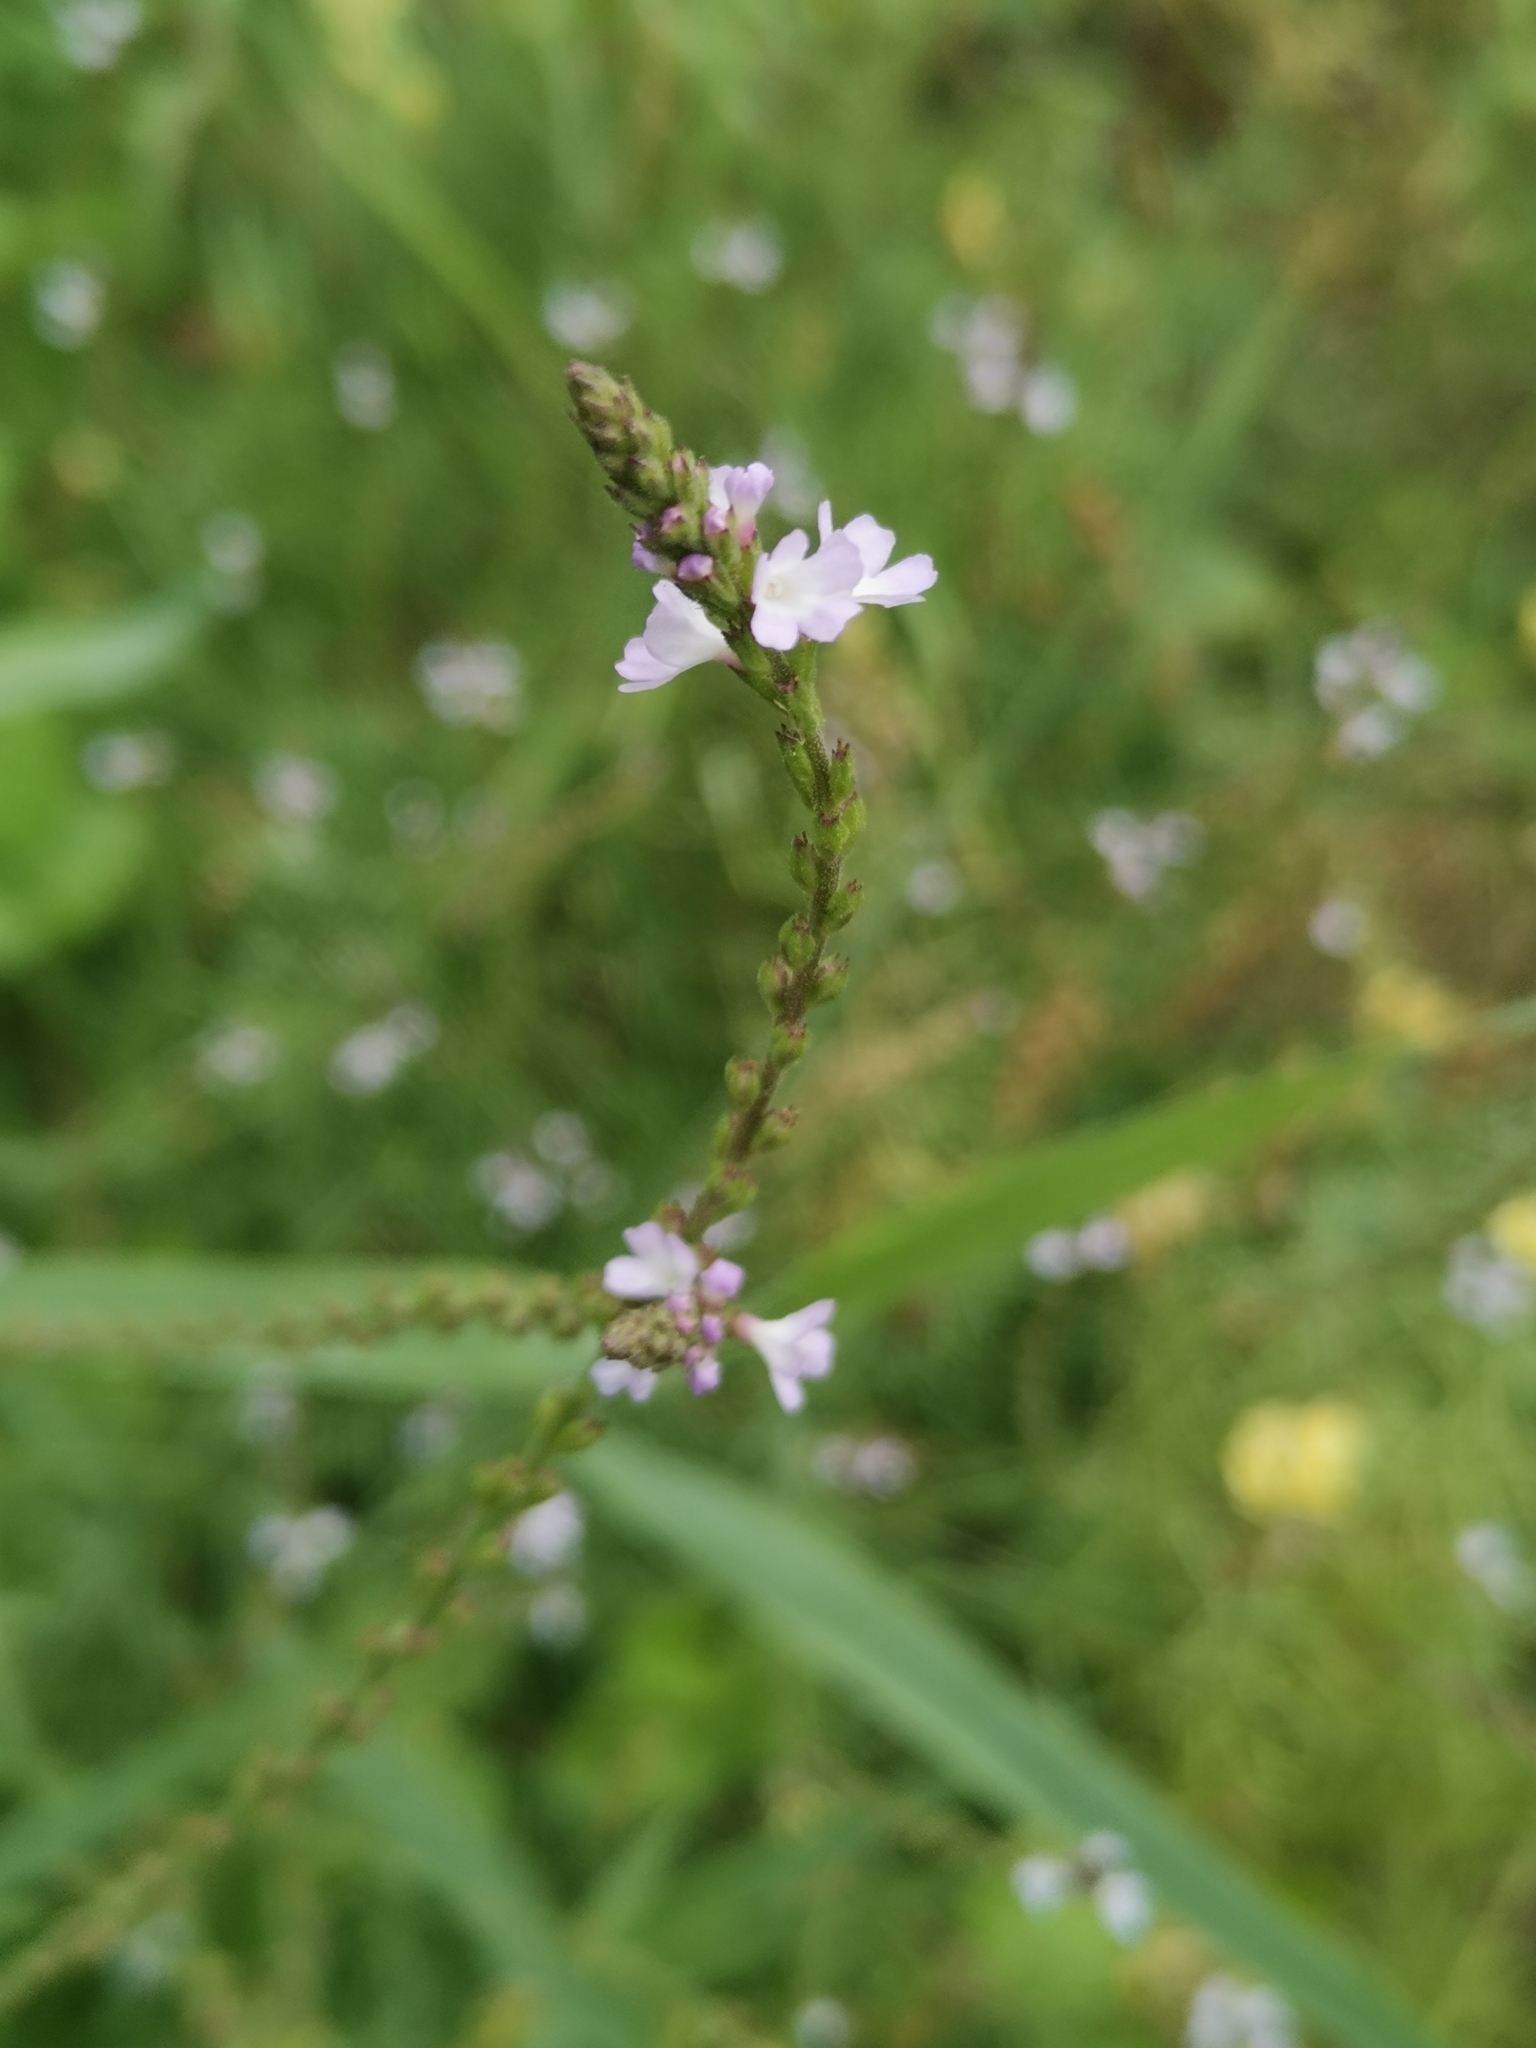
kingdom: Plantae
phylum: Tracheophyta
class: Magnoliopsida
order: Lamiales
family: Verbenaceae
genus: Verbena
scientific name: Verbena officinalis
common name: Vervain
